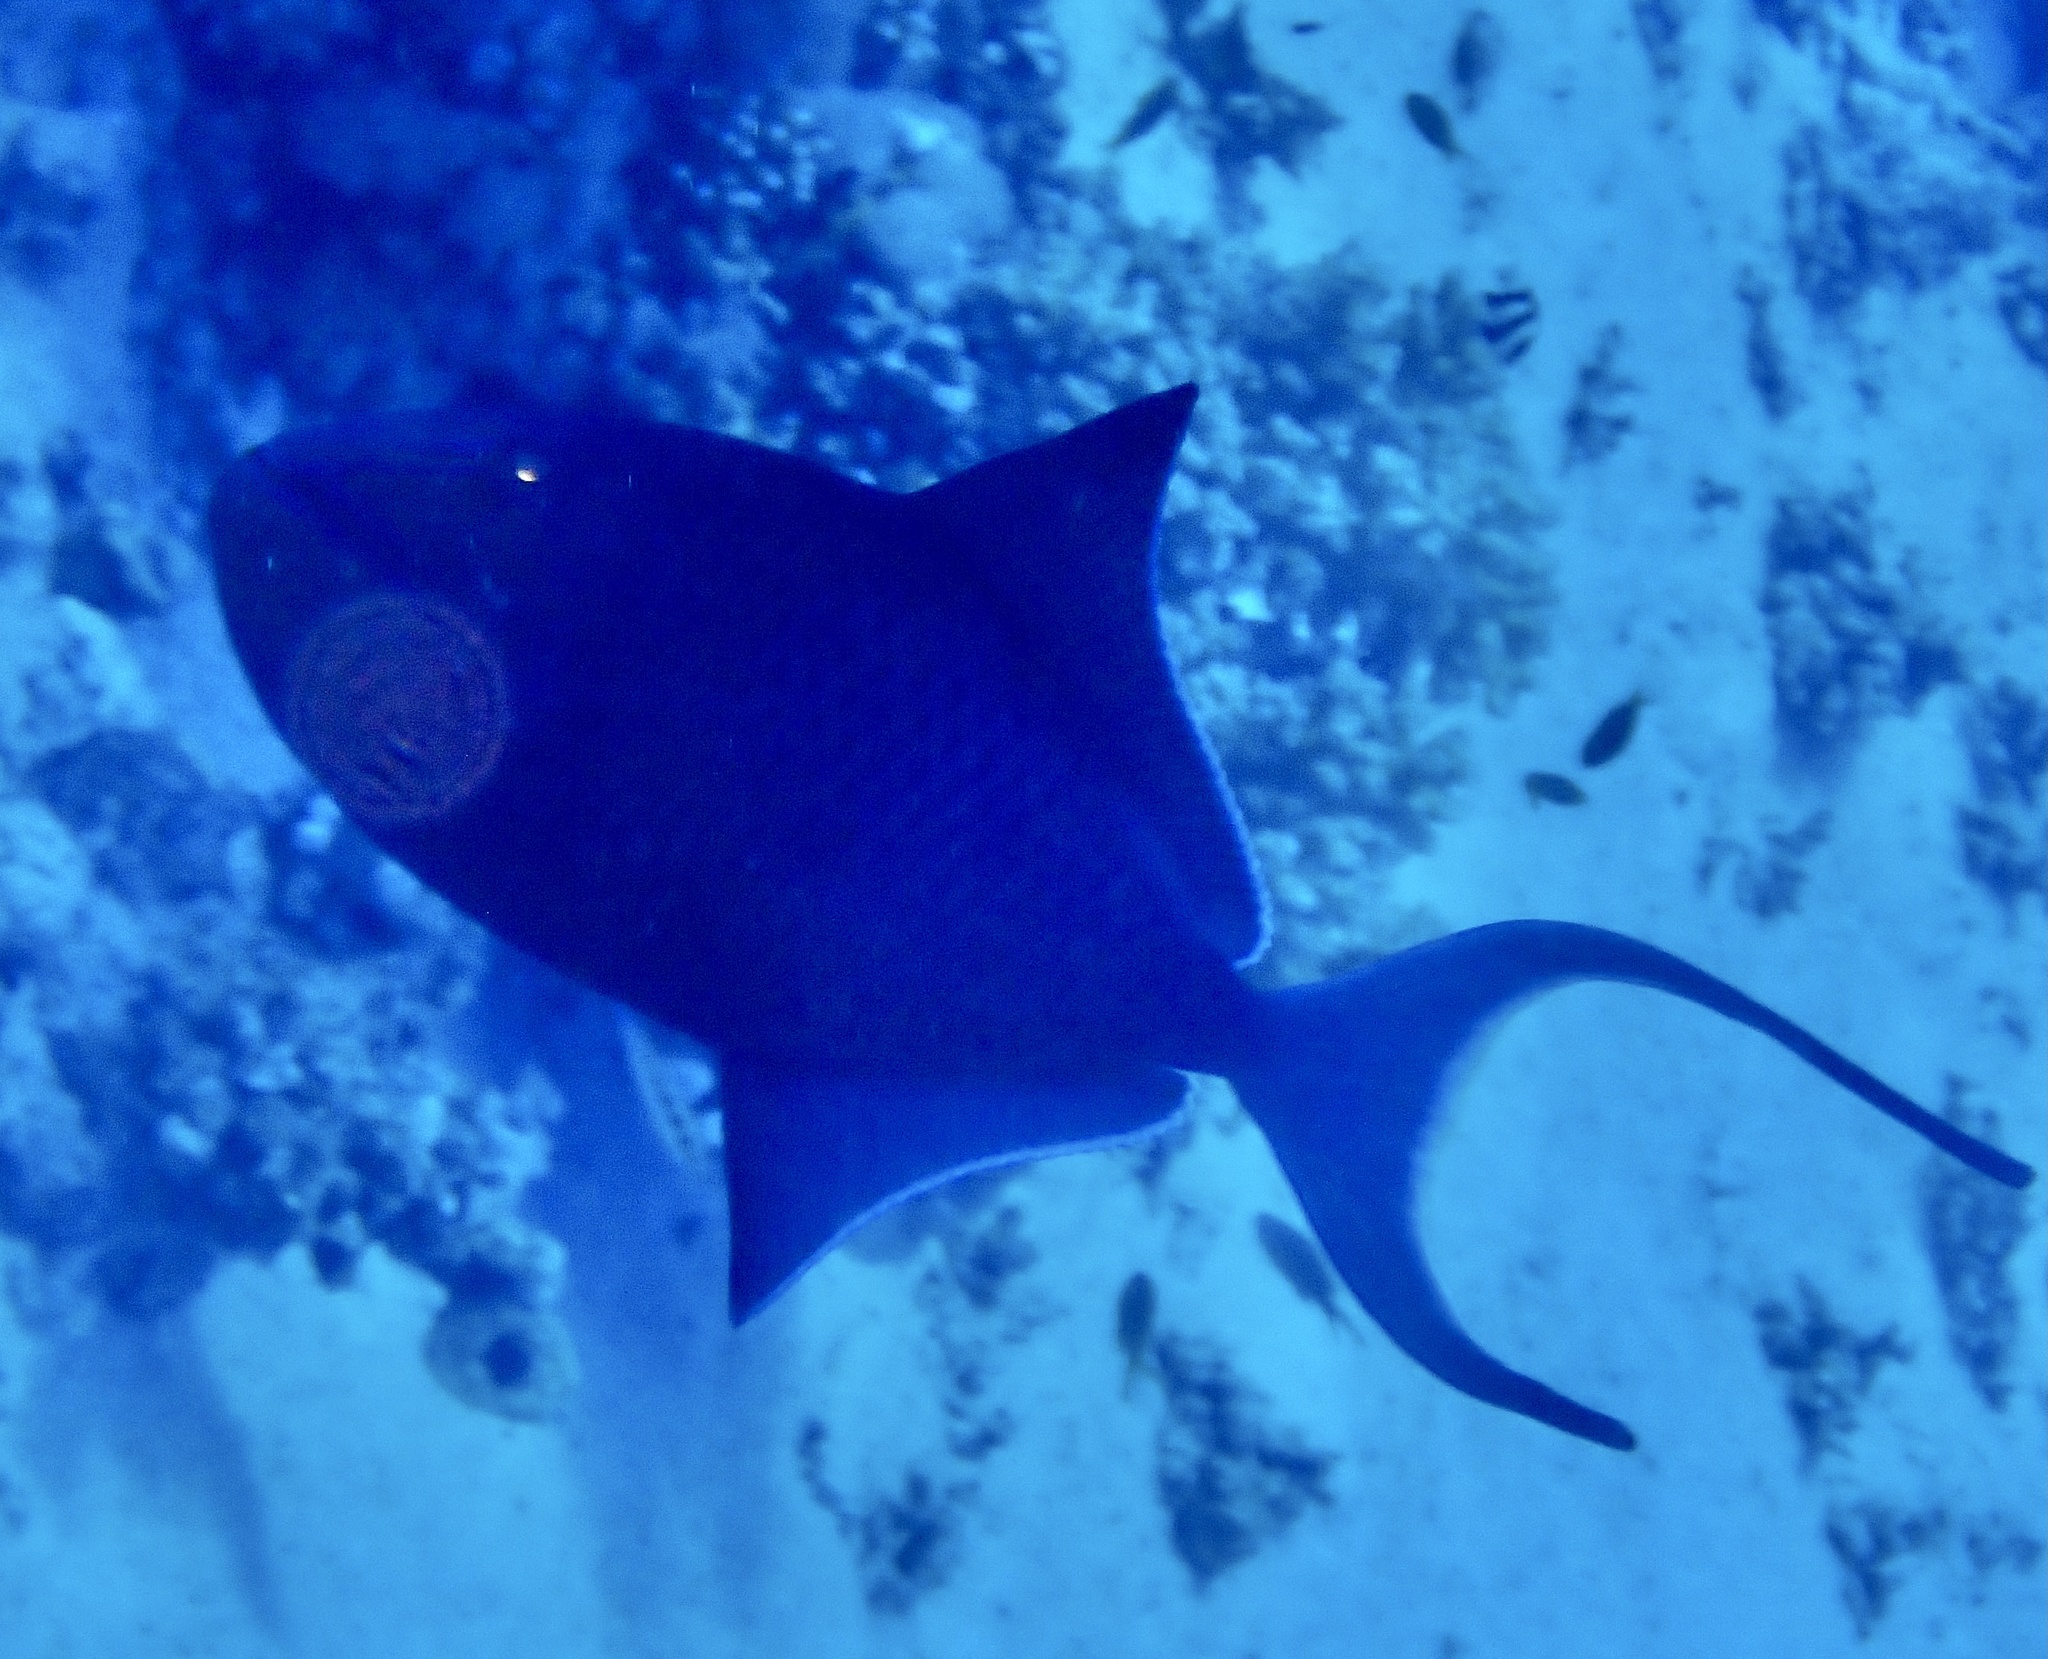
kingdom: Animalia
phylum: Chordata
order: Tetraodontiformes
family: Balistidae
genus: Odonus
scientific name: Odonus niger
